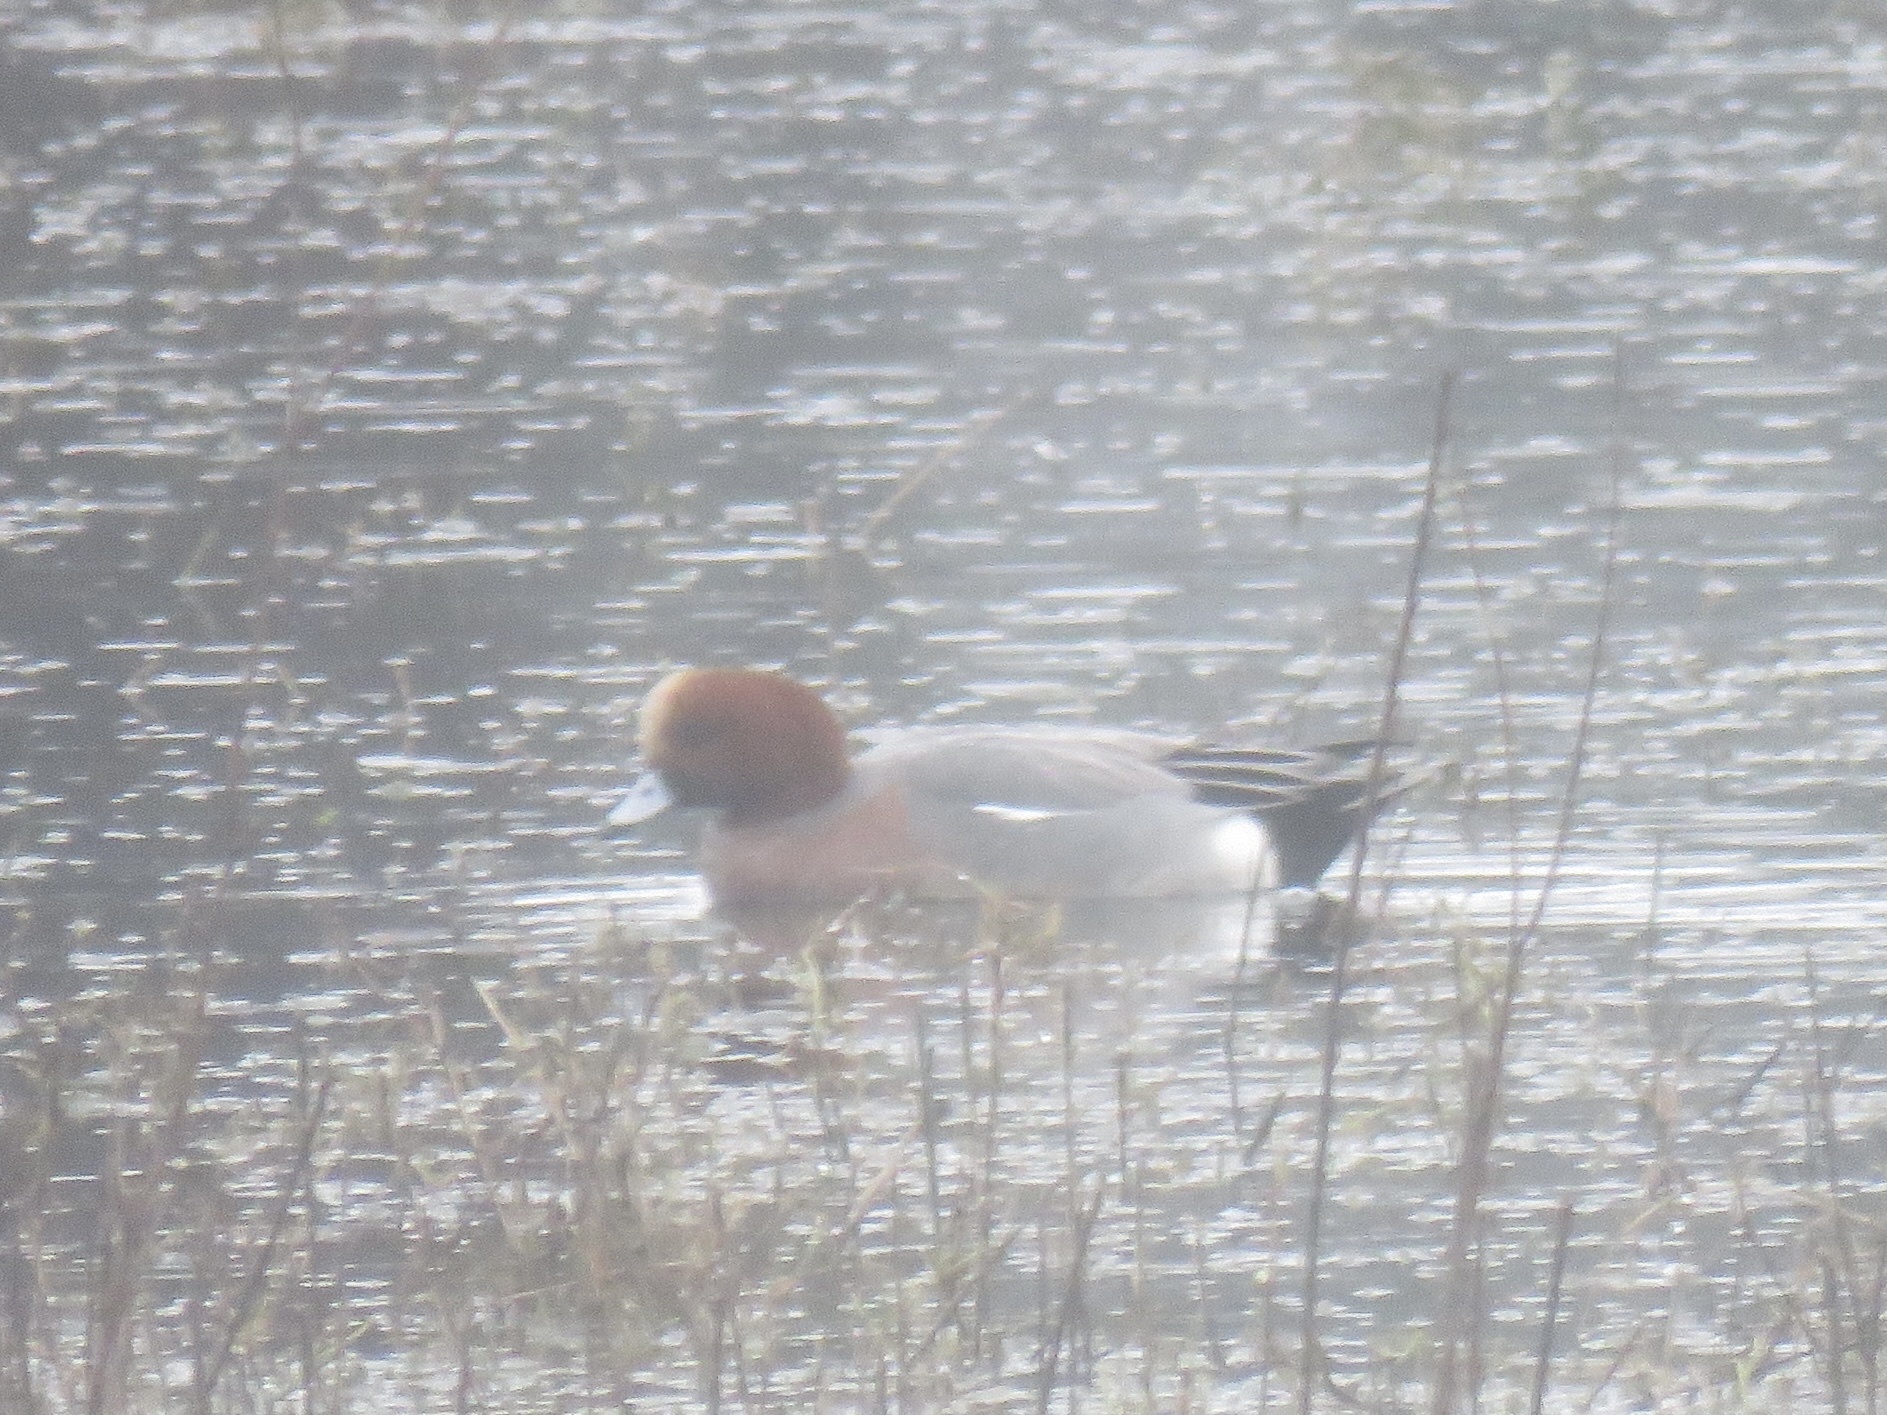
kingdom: Animalia
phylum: Chordata
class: Aves
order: Anseriformes
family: Anatidae
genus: Mareca
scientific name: Mareca penelope
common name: Eurasian wigeon
